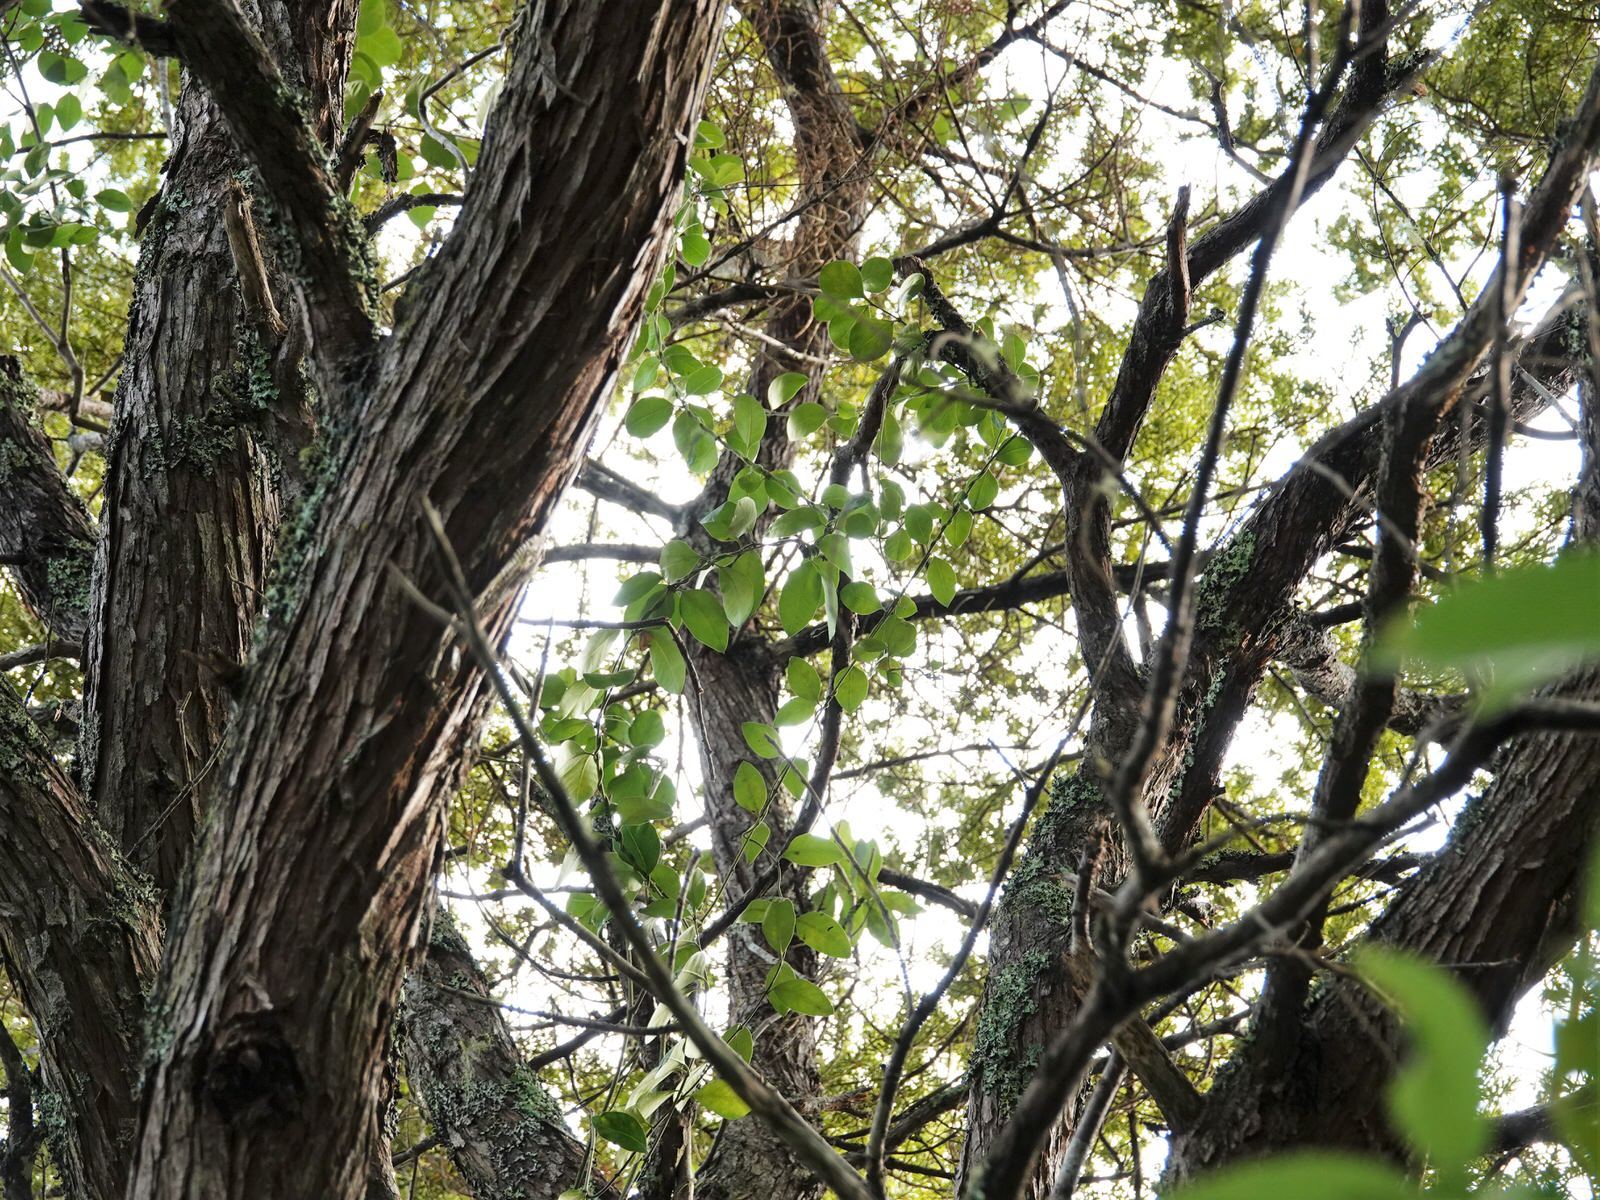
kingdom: Plantae
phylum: Tracheophyta
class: Magnoliopsida
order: Gentianales
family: Apocynaceae
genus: Parsonsia
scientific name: Parsonsia heterophylla
